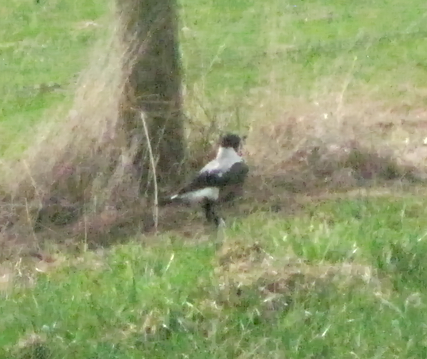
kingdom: Animalia
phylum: Chordata
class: Aves
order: Passeriformes
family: Cracticidae
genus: Gymnorhina
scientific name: Gymnorhina tibicen
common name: Australian magpie
